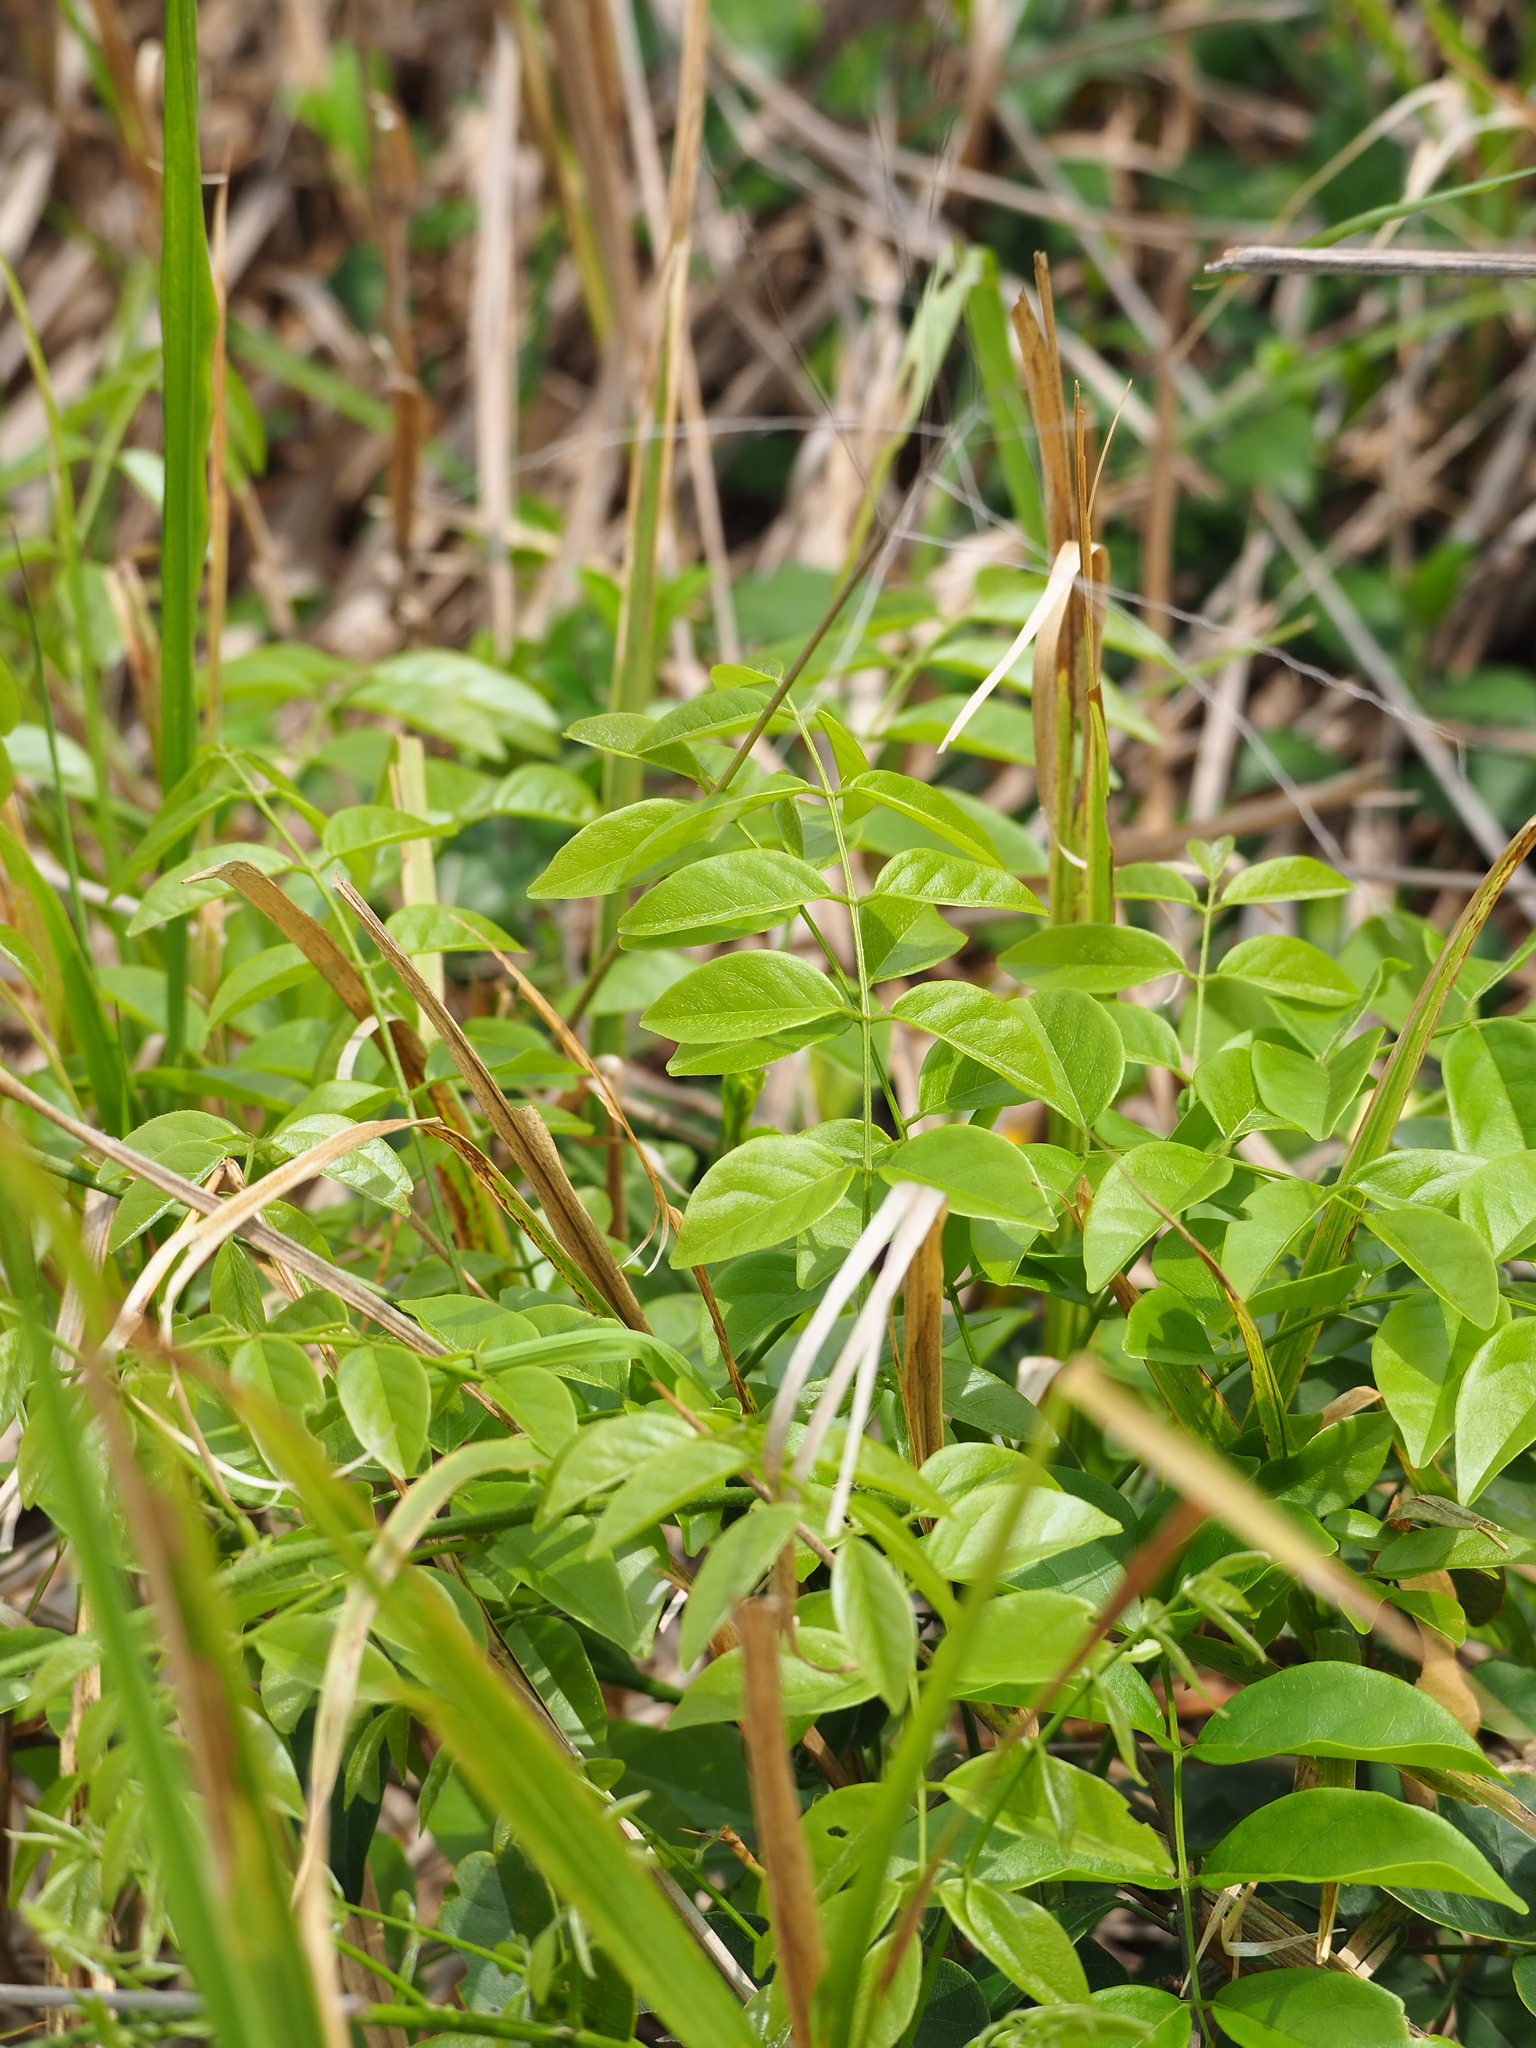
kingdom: Plantae
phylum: Tracheophyta
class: Magnoliopsida
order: Fabales
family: Fabaceae
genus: Wisteriopsis
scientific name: Wisteriopsis reticulata
